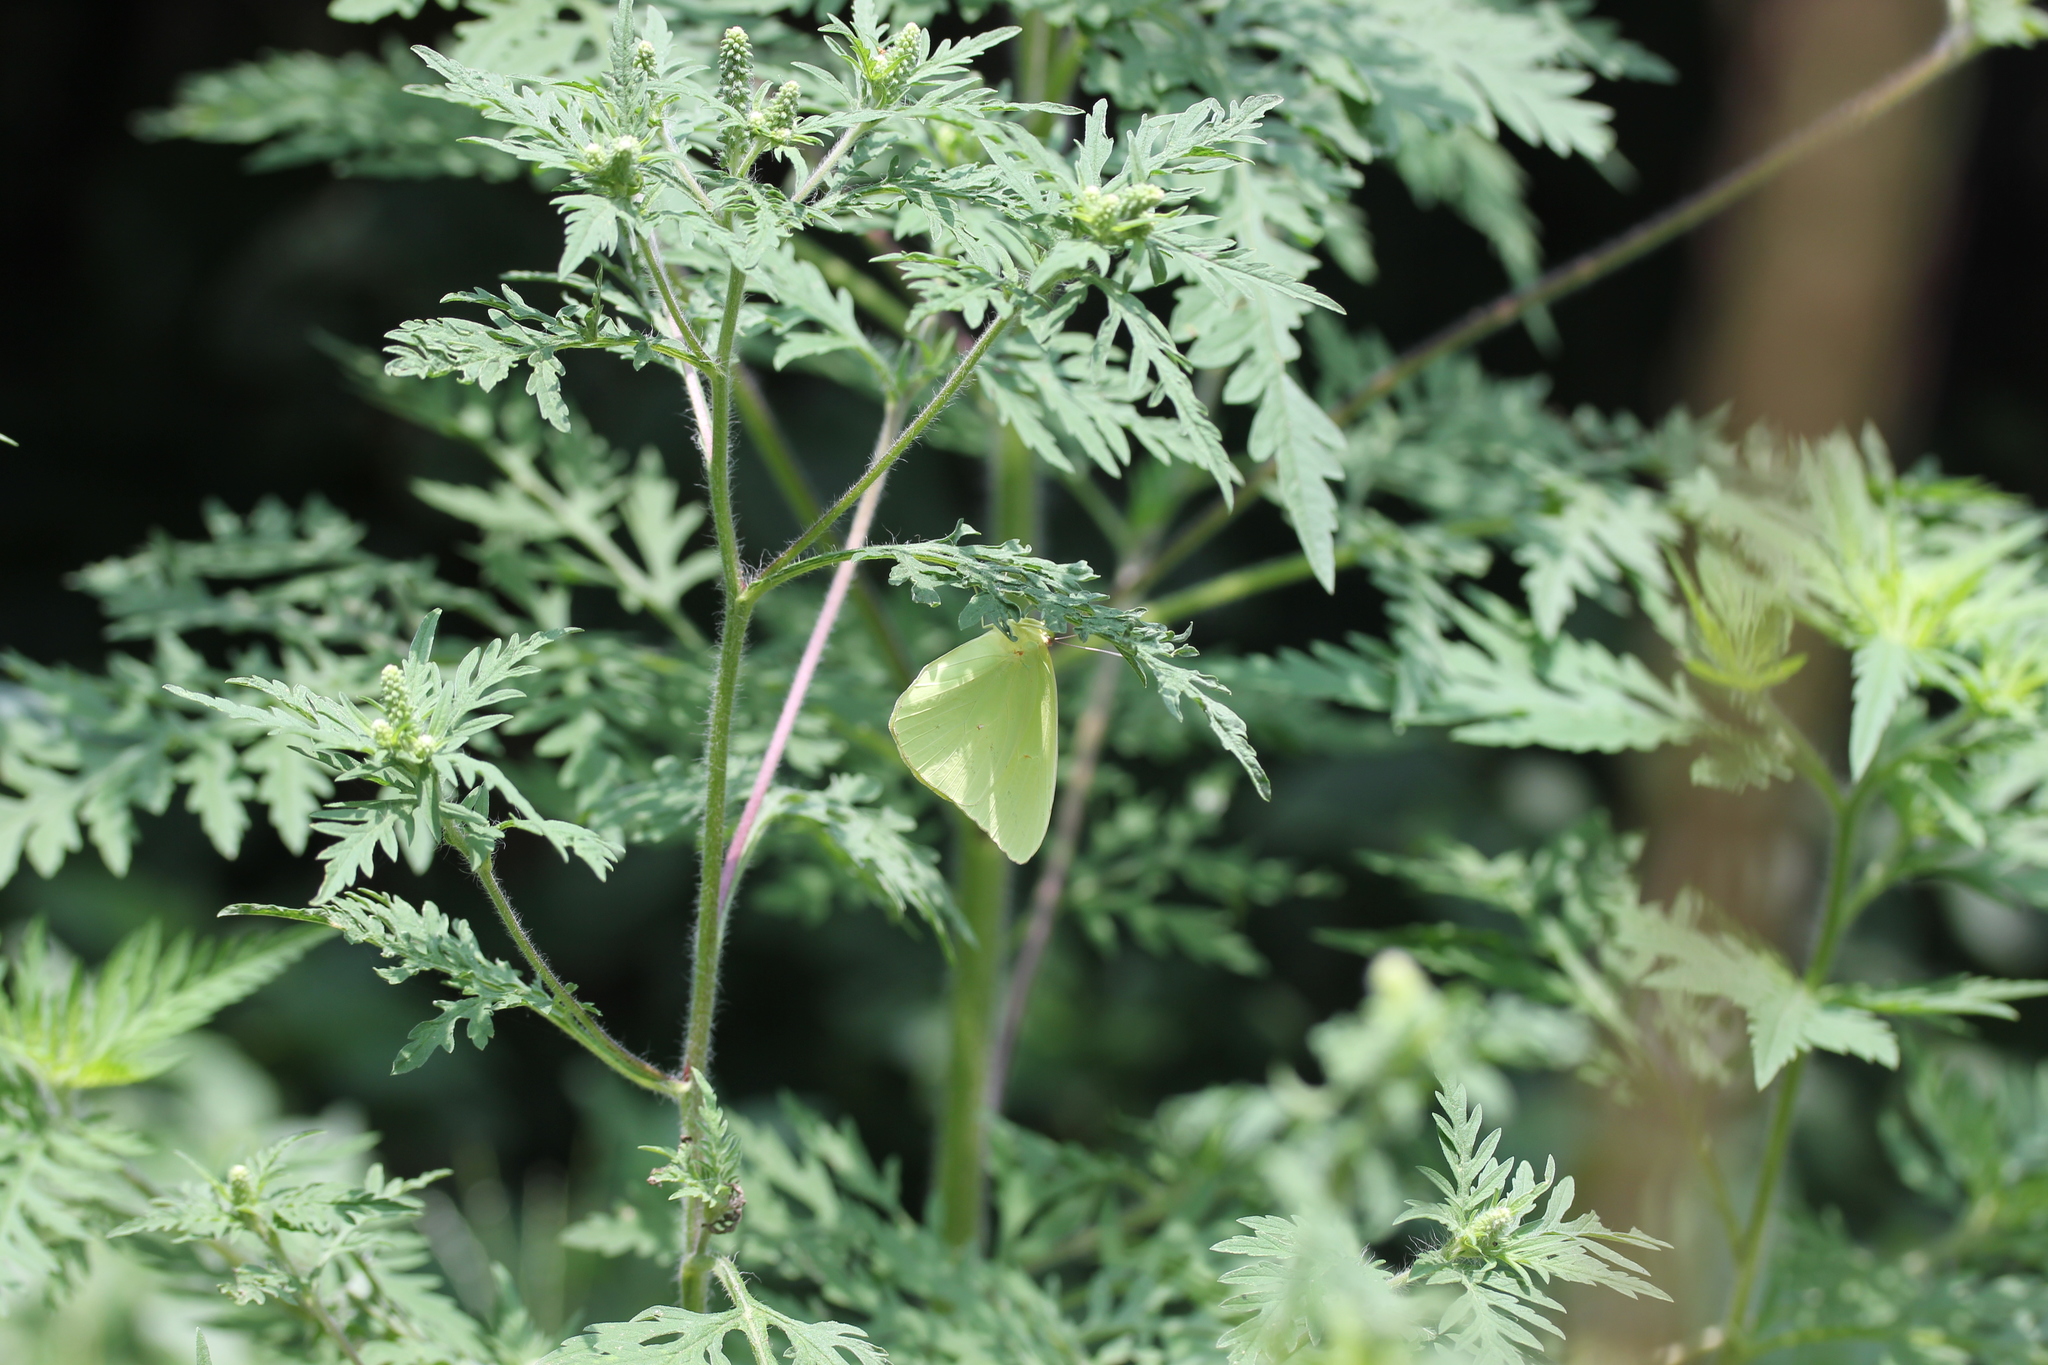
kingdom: Plantae
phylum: Tracheophyta
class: Magnoliopsida
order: Asterales
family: Asteraceae
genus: Ambrosia
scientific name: Ambrosia artemisiifolia
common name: Annual ragweed
